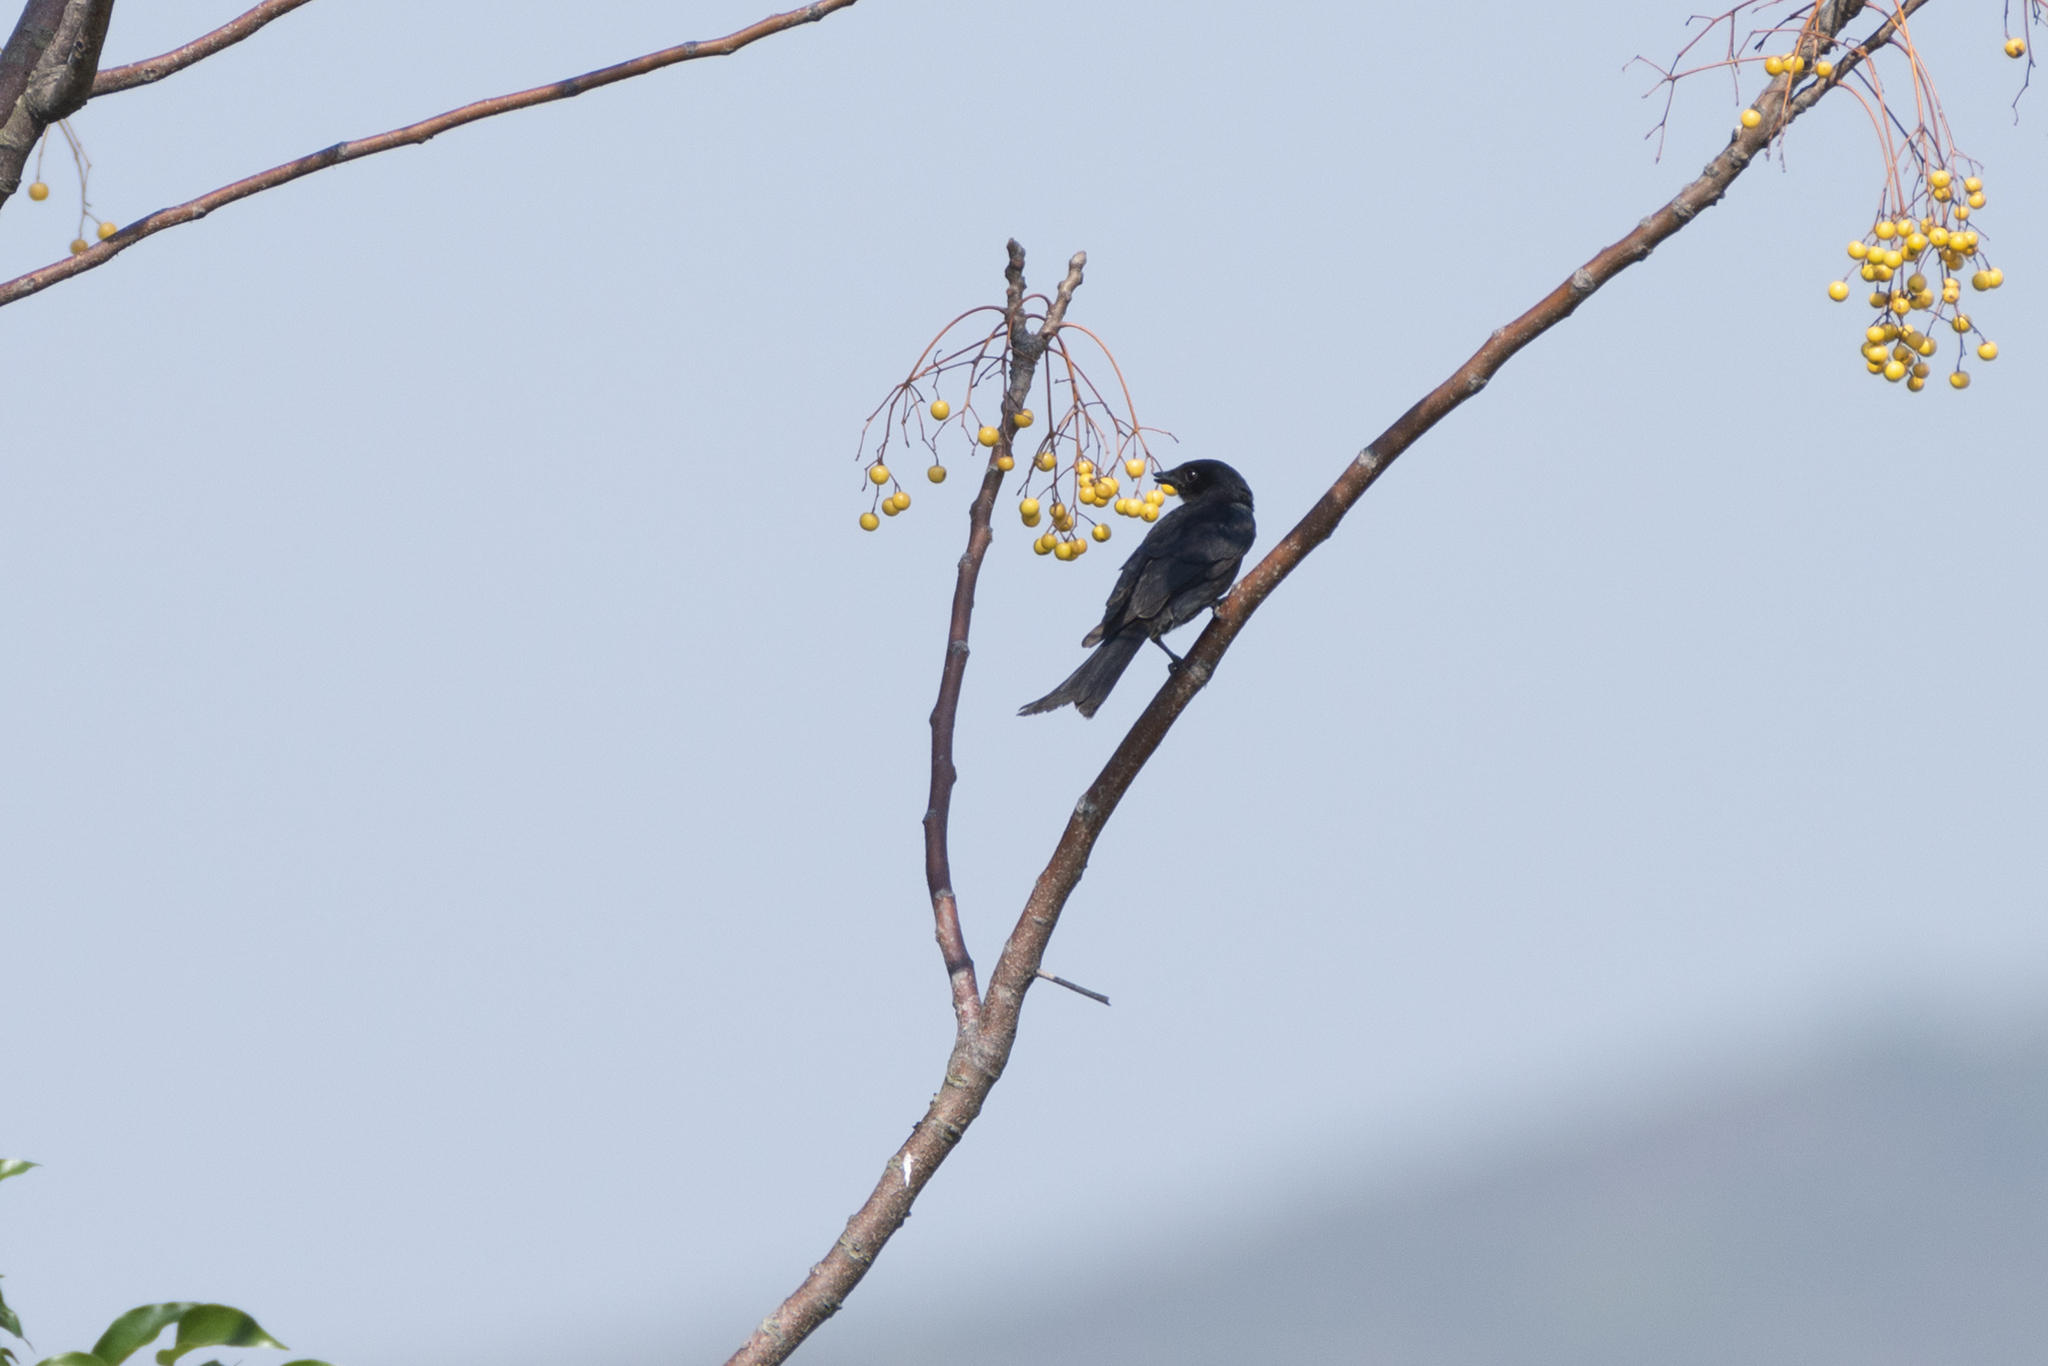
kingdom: Animalia
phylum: Chordata
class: Aves
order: Passeriformes
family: Dicruridae
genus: Dicrurus
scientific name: Dicrurus macrocercus
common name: Black drongo
